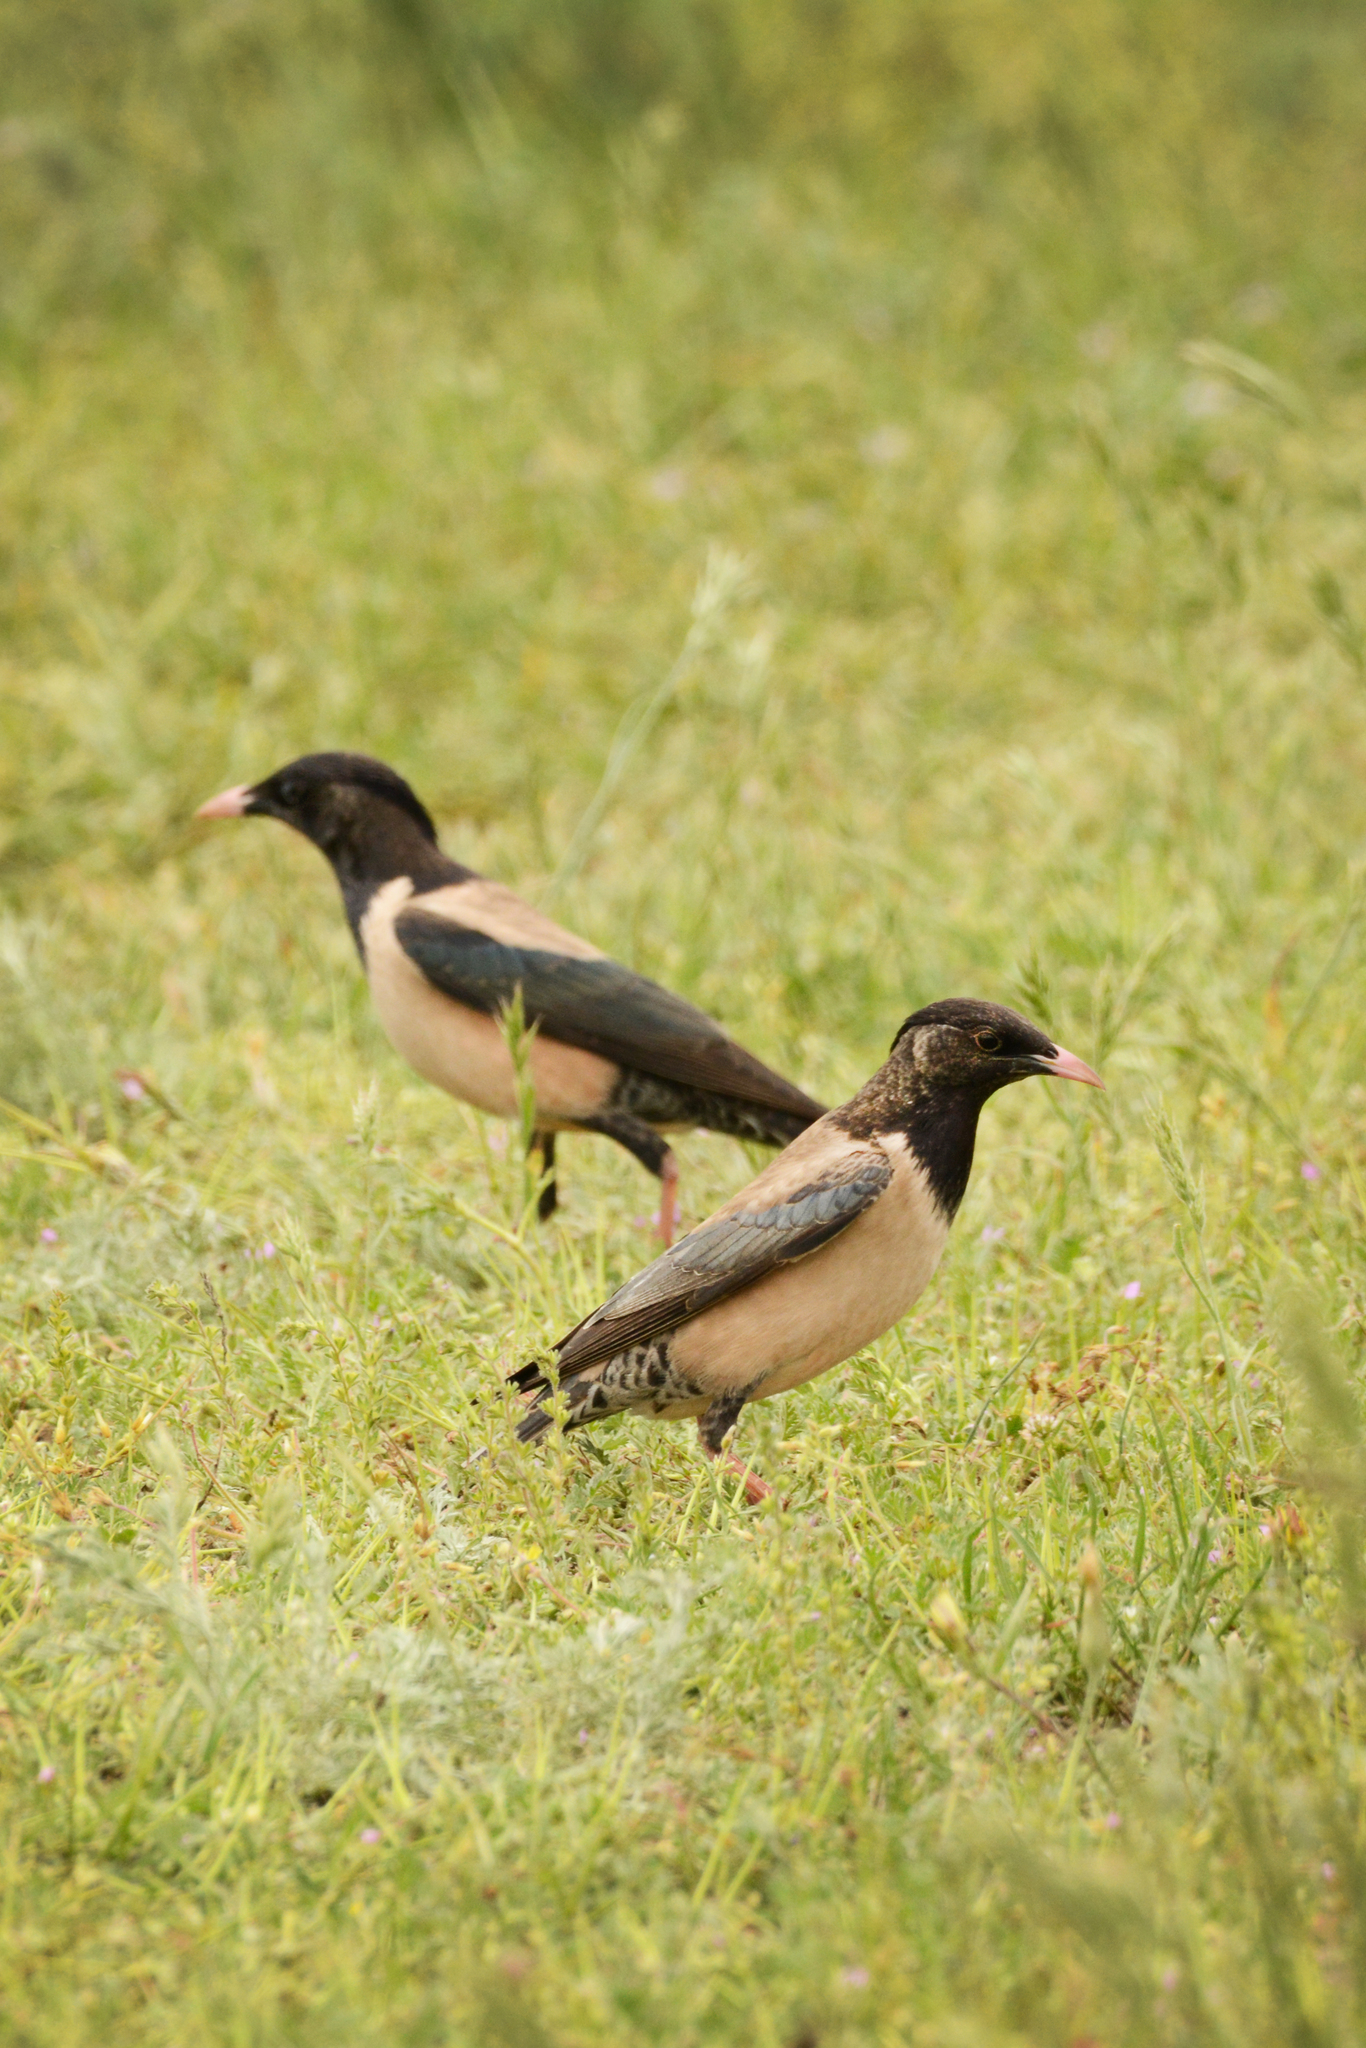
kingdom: Animalia
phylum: Chordata
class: Aves
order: Passeriformes
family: Sturnidae
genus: Pastor
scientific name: Pastor roseus
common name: Rosy starling
